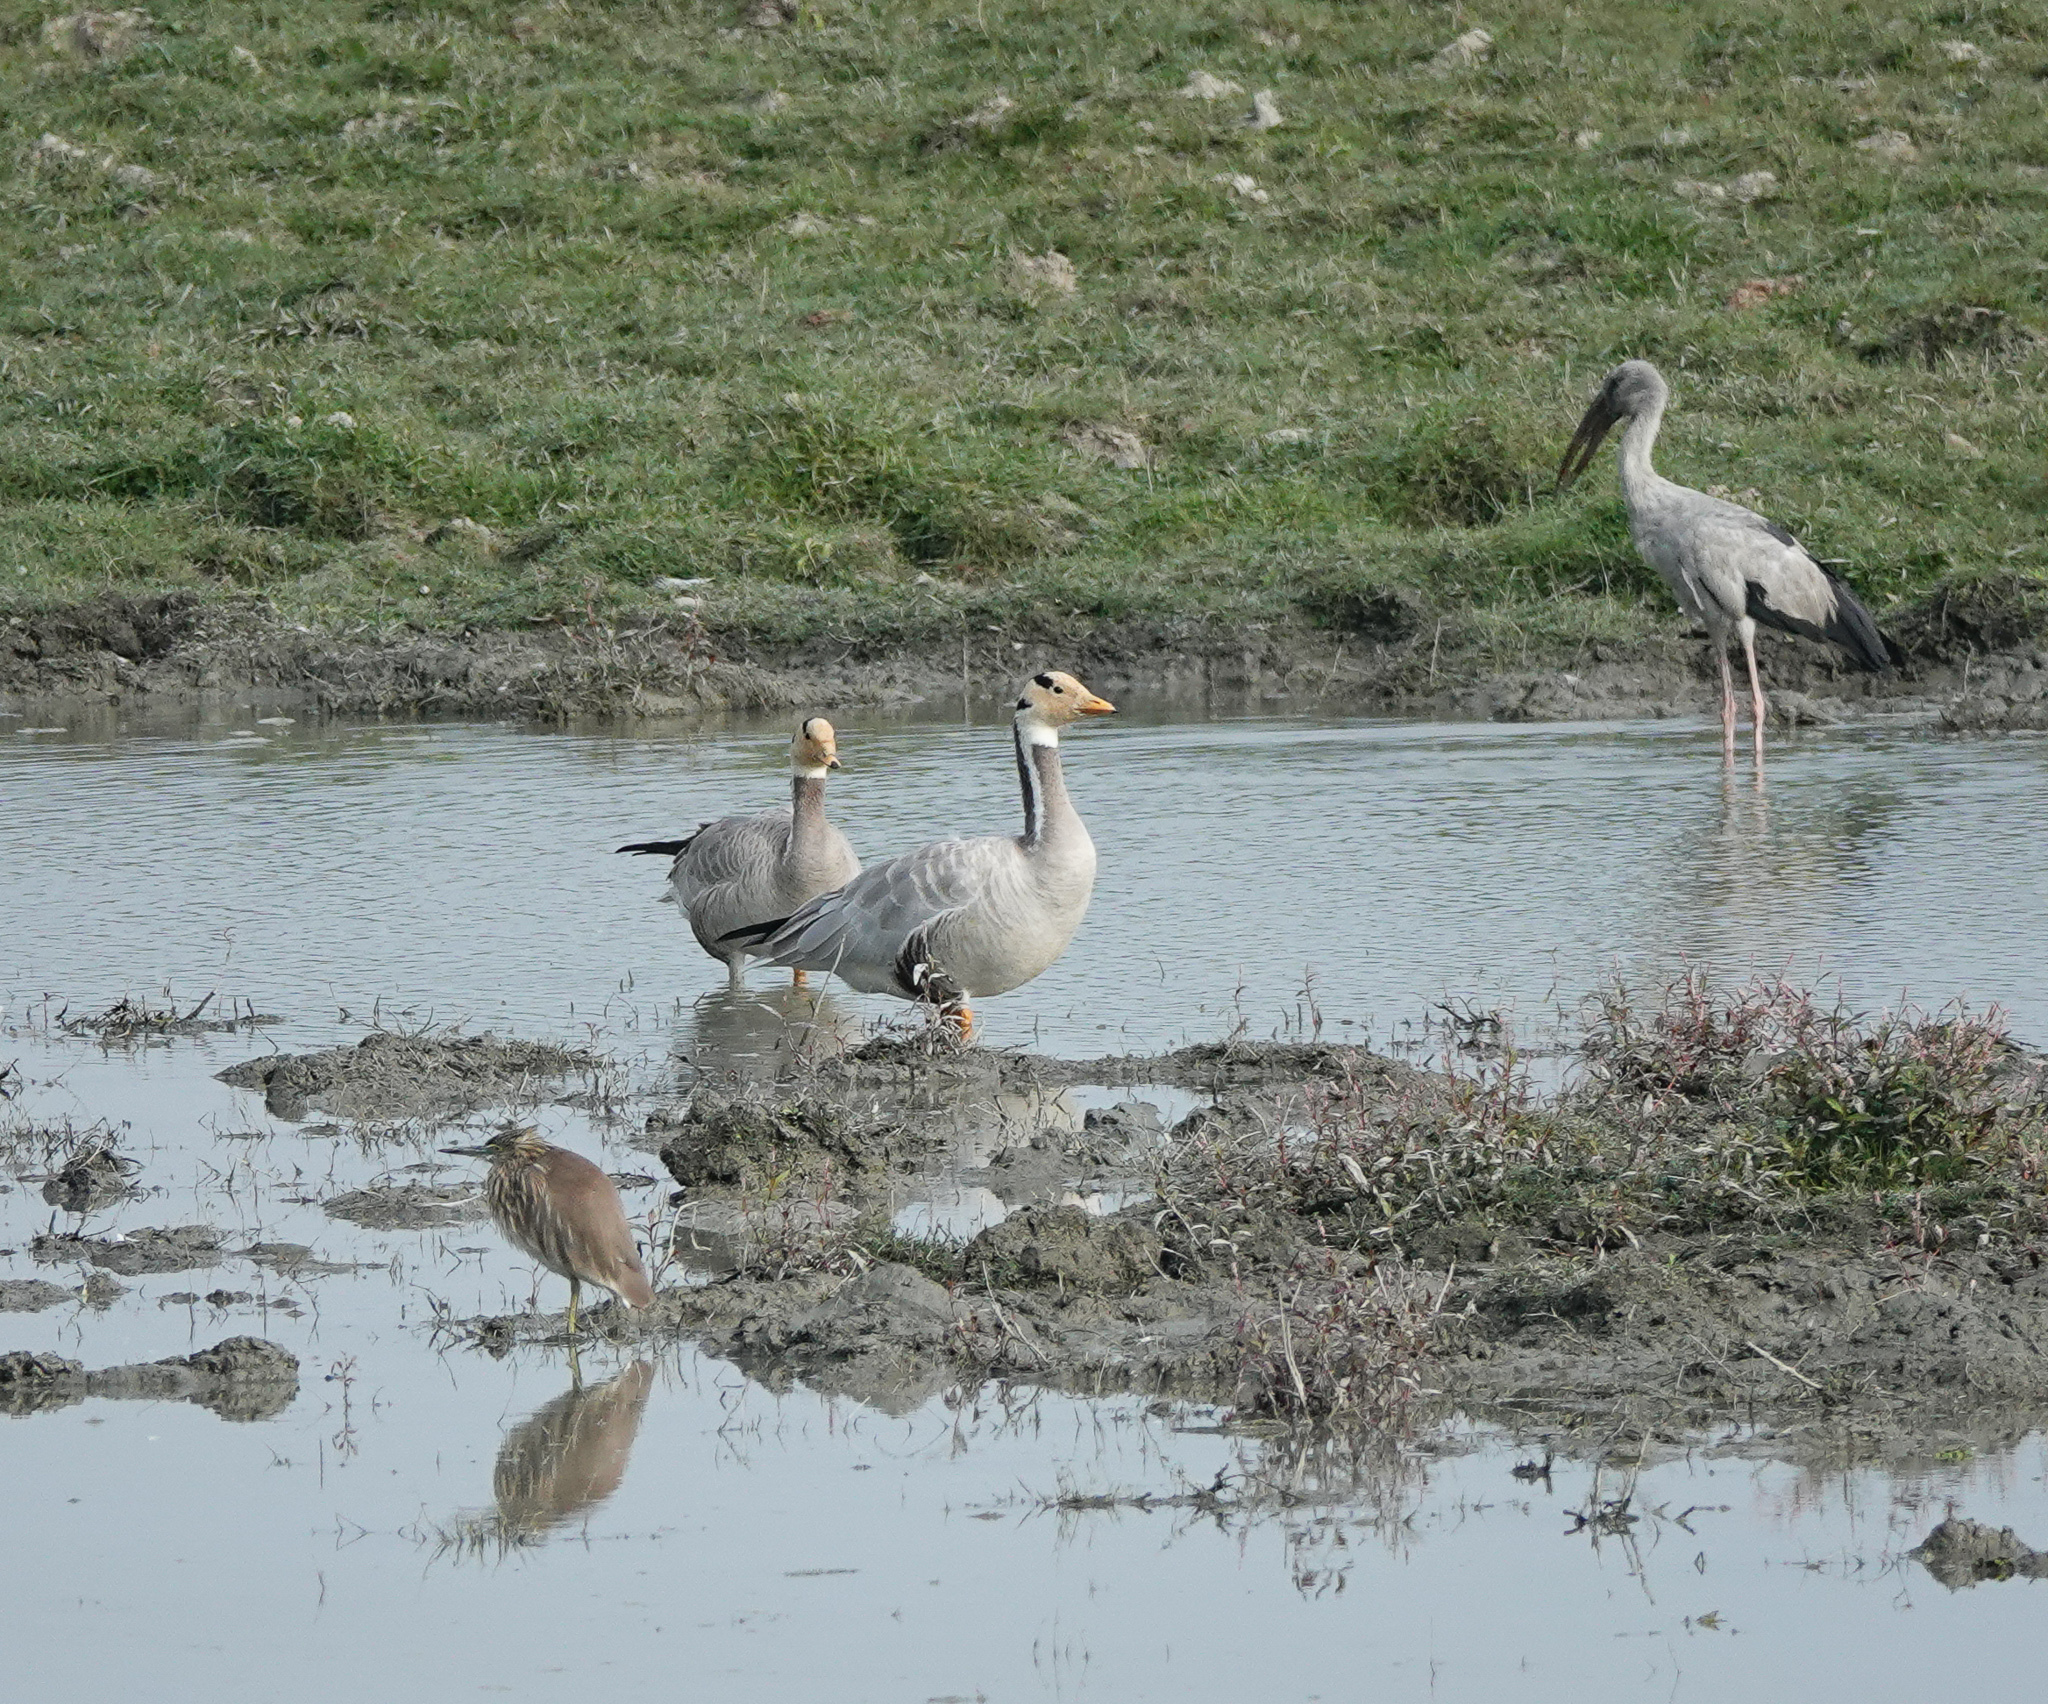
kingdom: Animalia
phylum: Chordata
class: Aves
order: Anseriformes
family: Anatidae
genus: Anser
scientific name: Anser indicus
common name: Bar-headed goose
